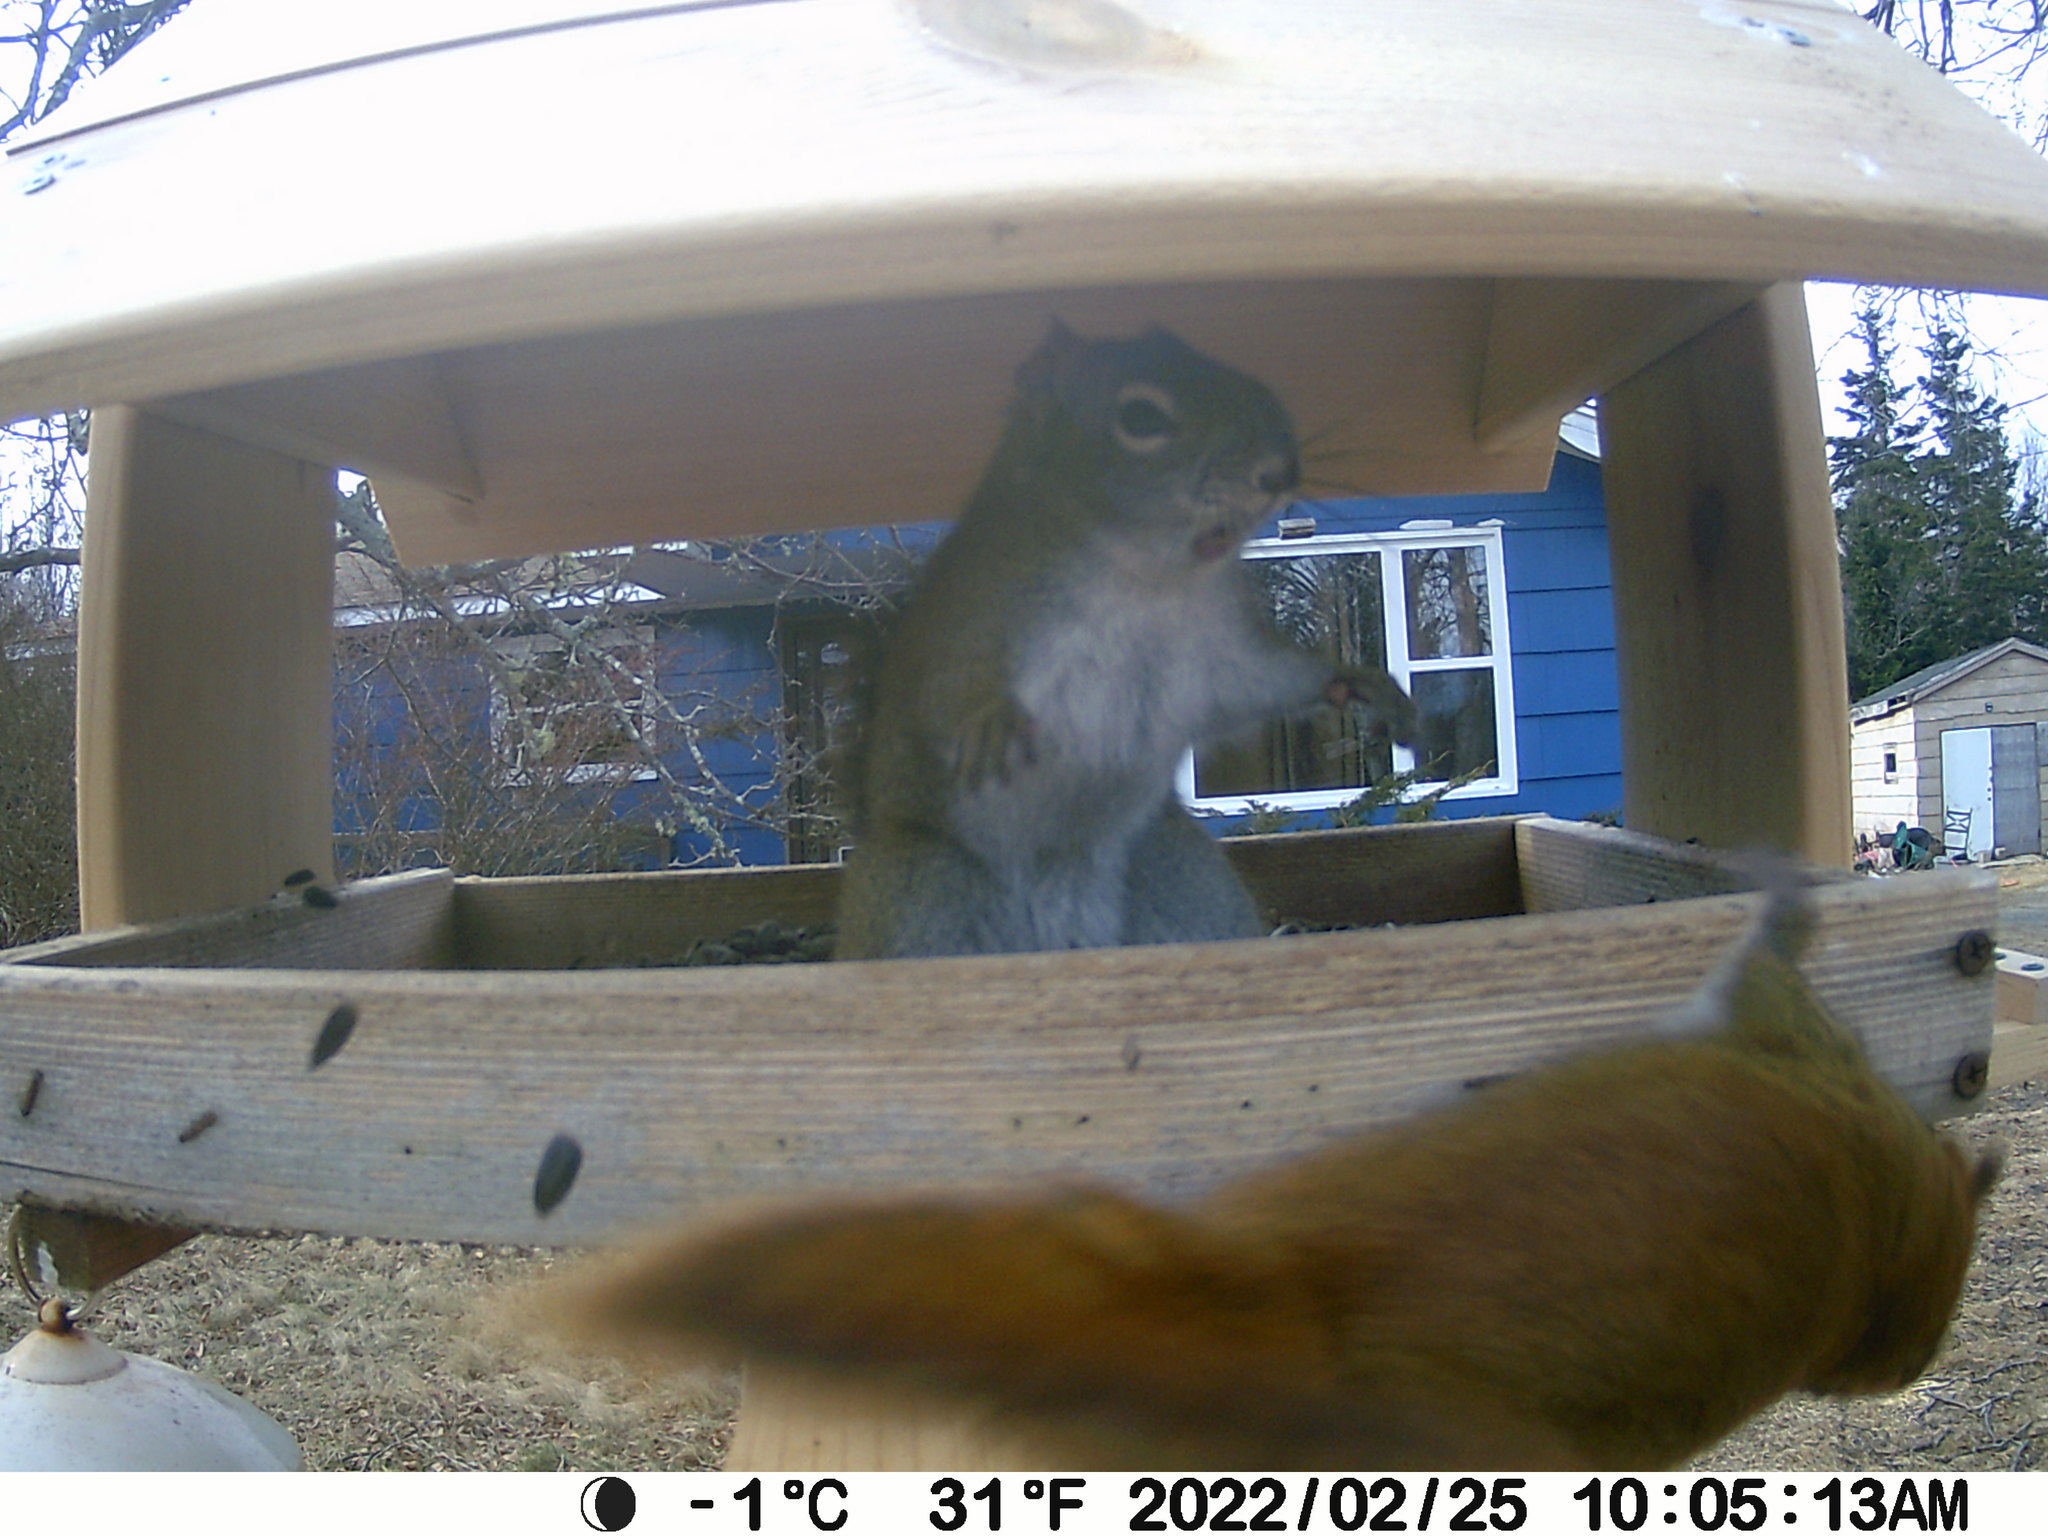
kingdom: Animalia
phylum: Chordata
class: Mammalia
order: Rodentia
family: Sciuridae
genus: Tamiasciurus
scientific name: Tamiasciurus hudsonicus
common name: Red squirrel
